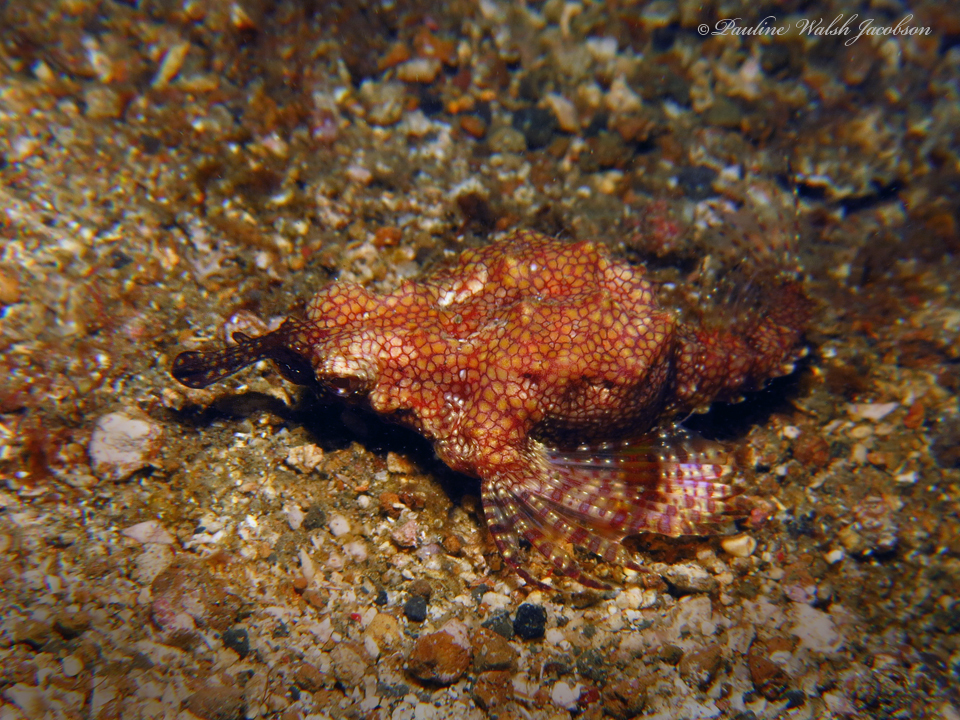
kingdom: Animalia
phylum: Chordata
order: Gasterosteiformes
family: Pegasidae
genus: Eurypegasus
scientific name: Eurypegasus draconis
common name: Short dragonfish
